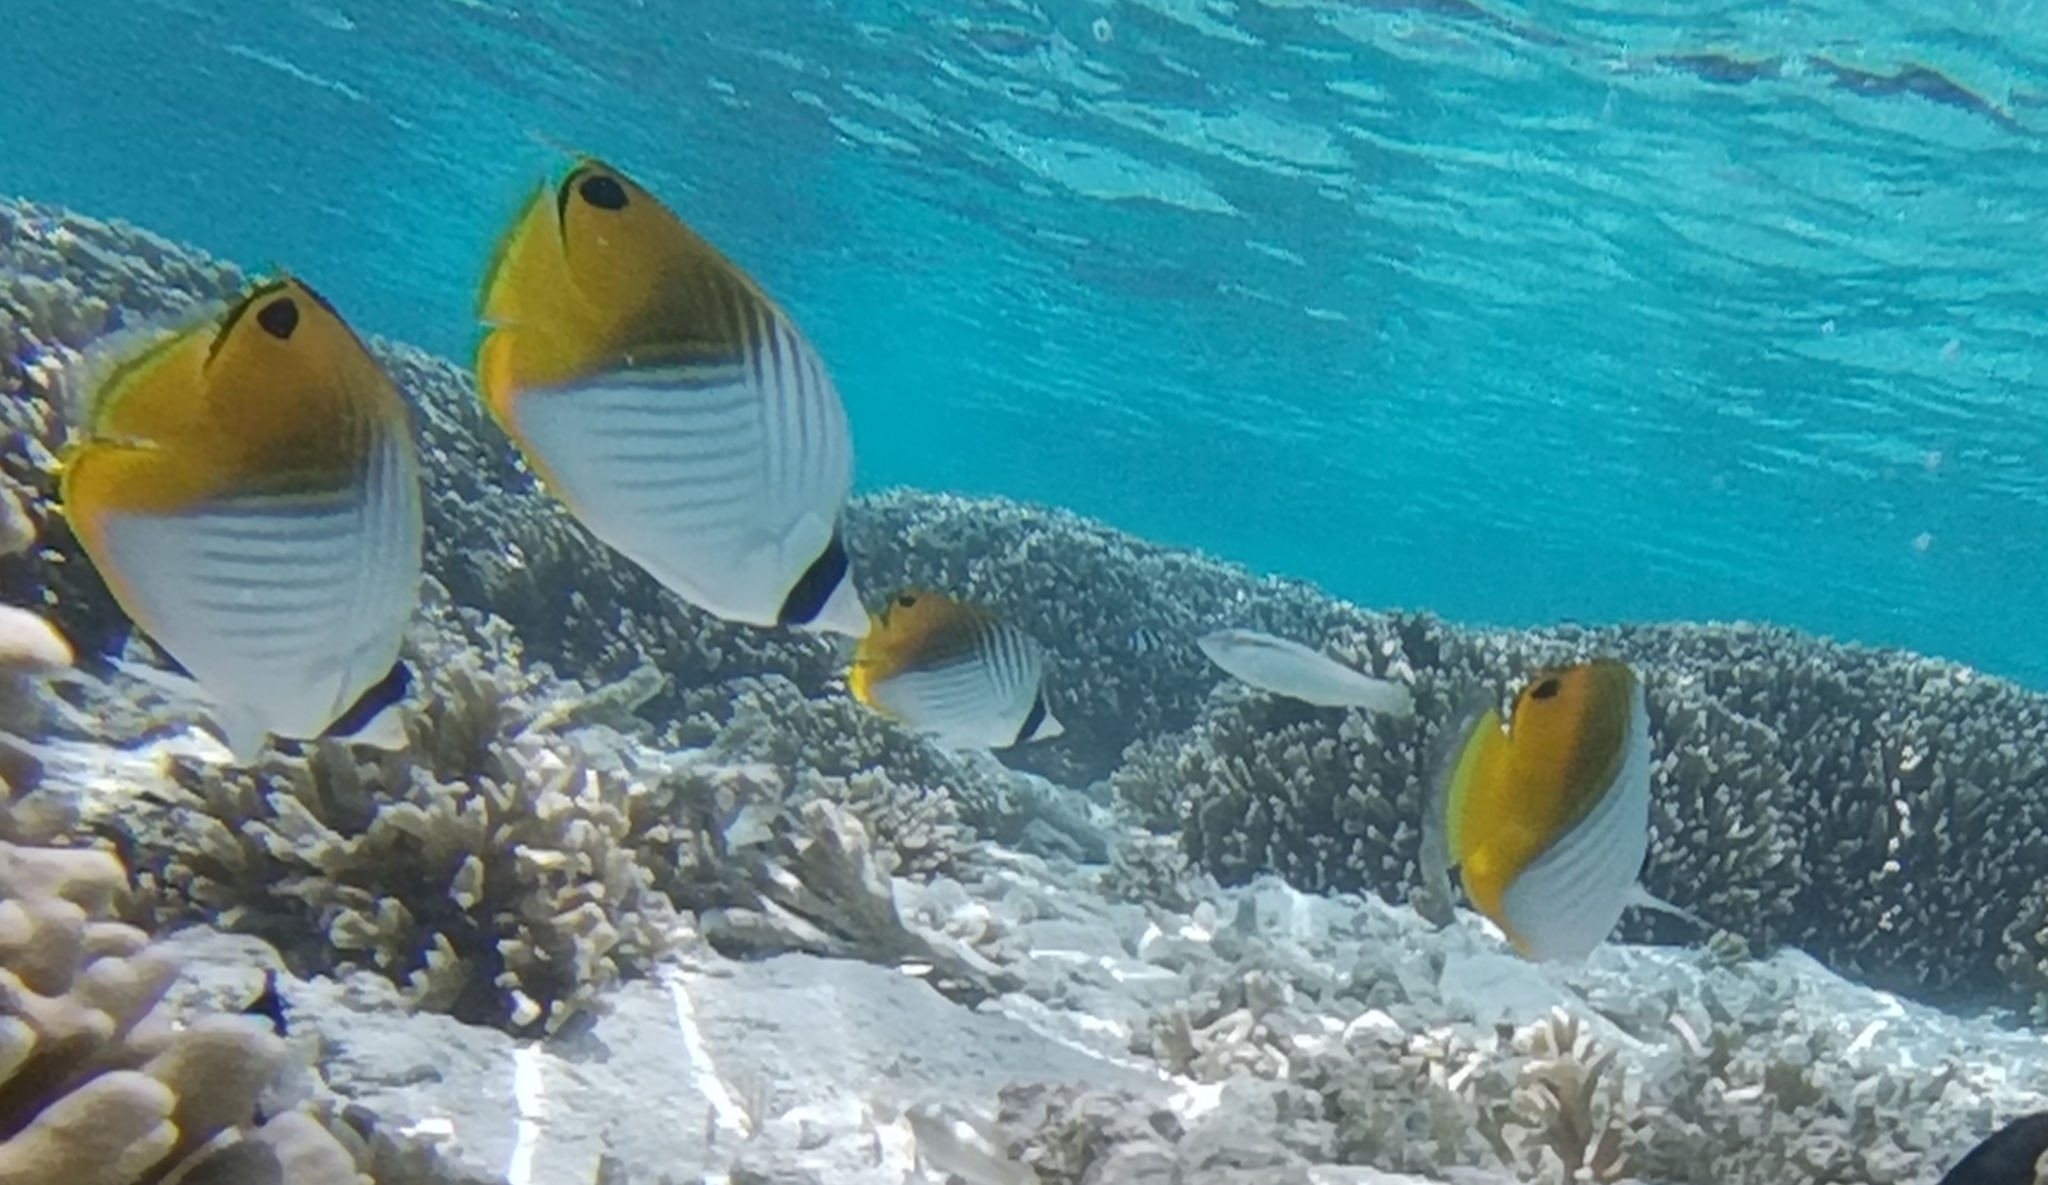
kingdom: Animalia
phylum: Chordata
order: Perciformes
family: Chaetodontidae
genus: Chaetodon
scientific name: Chaetodon auriga
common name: Threadfin butterflyfish
